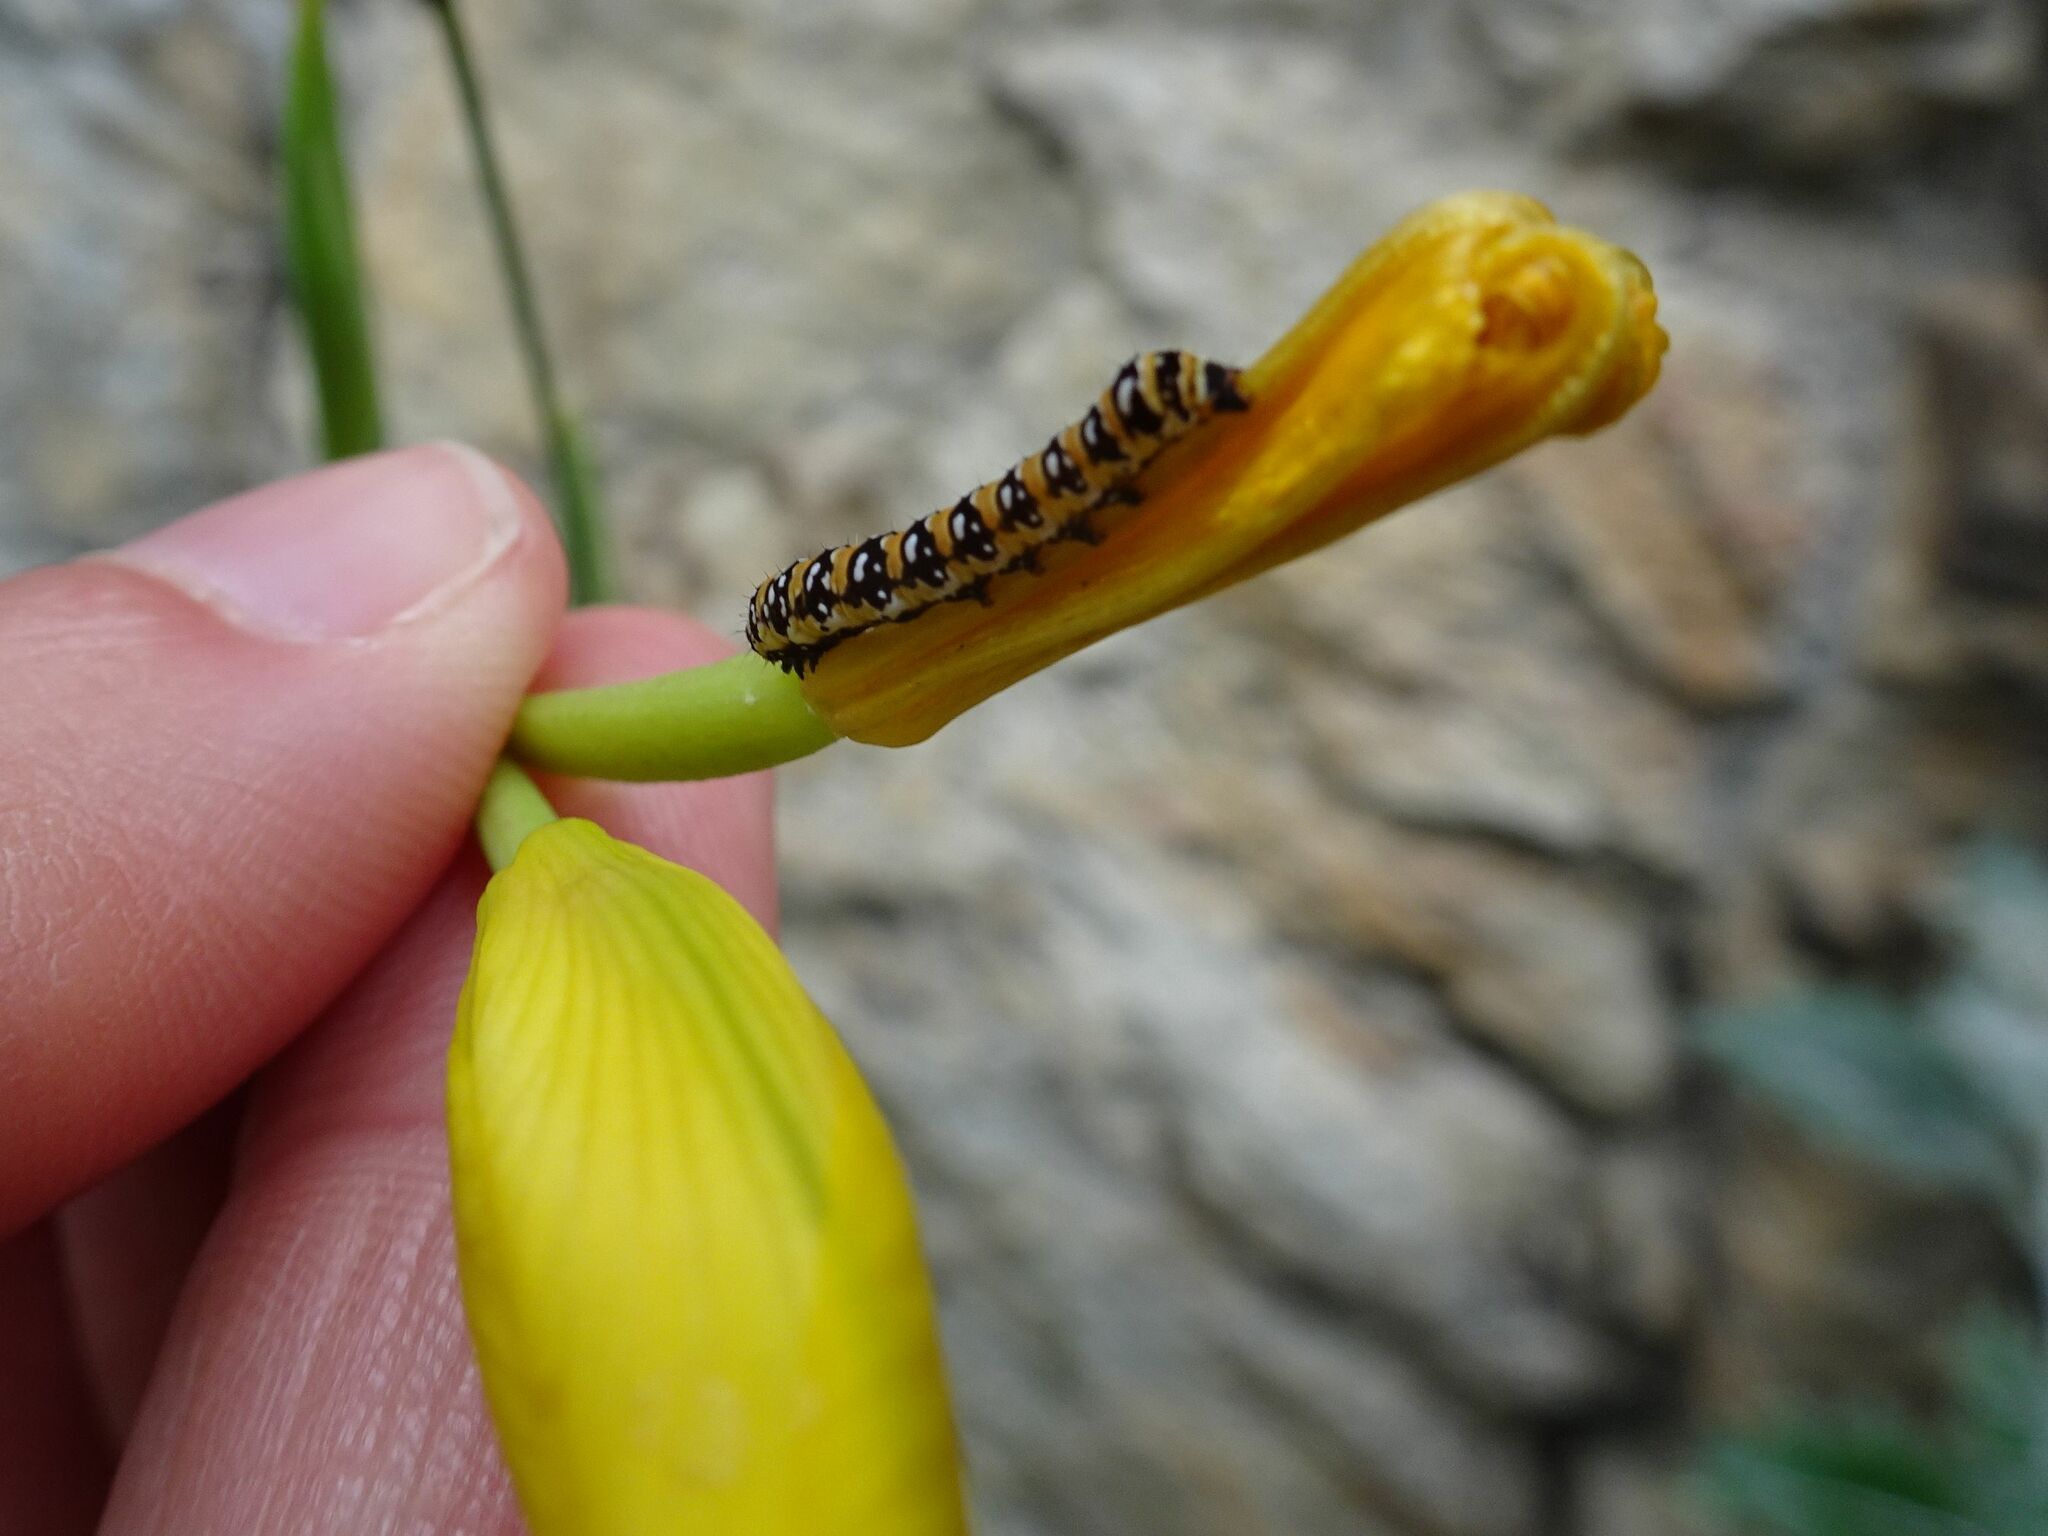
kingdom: Animalia
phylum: Arthropoda
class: Insecta
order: Lepidoptera
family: Noctuidae
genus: Klugeana
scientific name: Klugeana philoxalis
